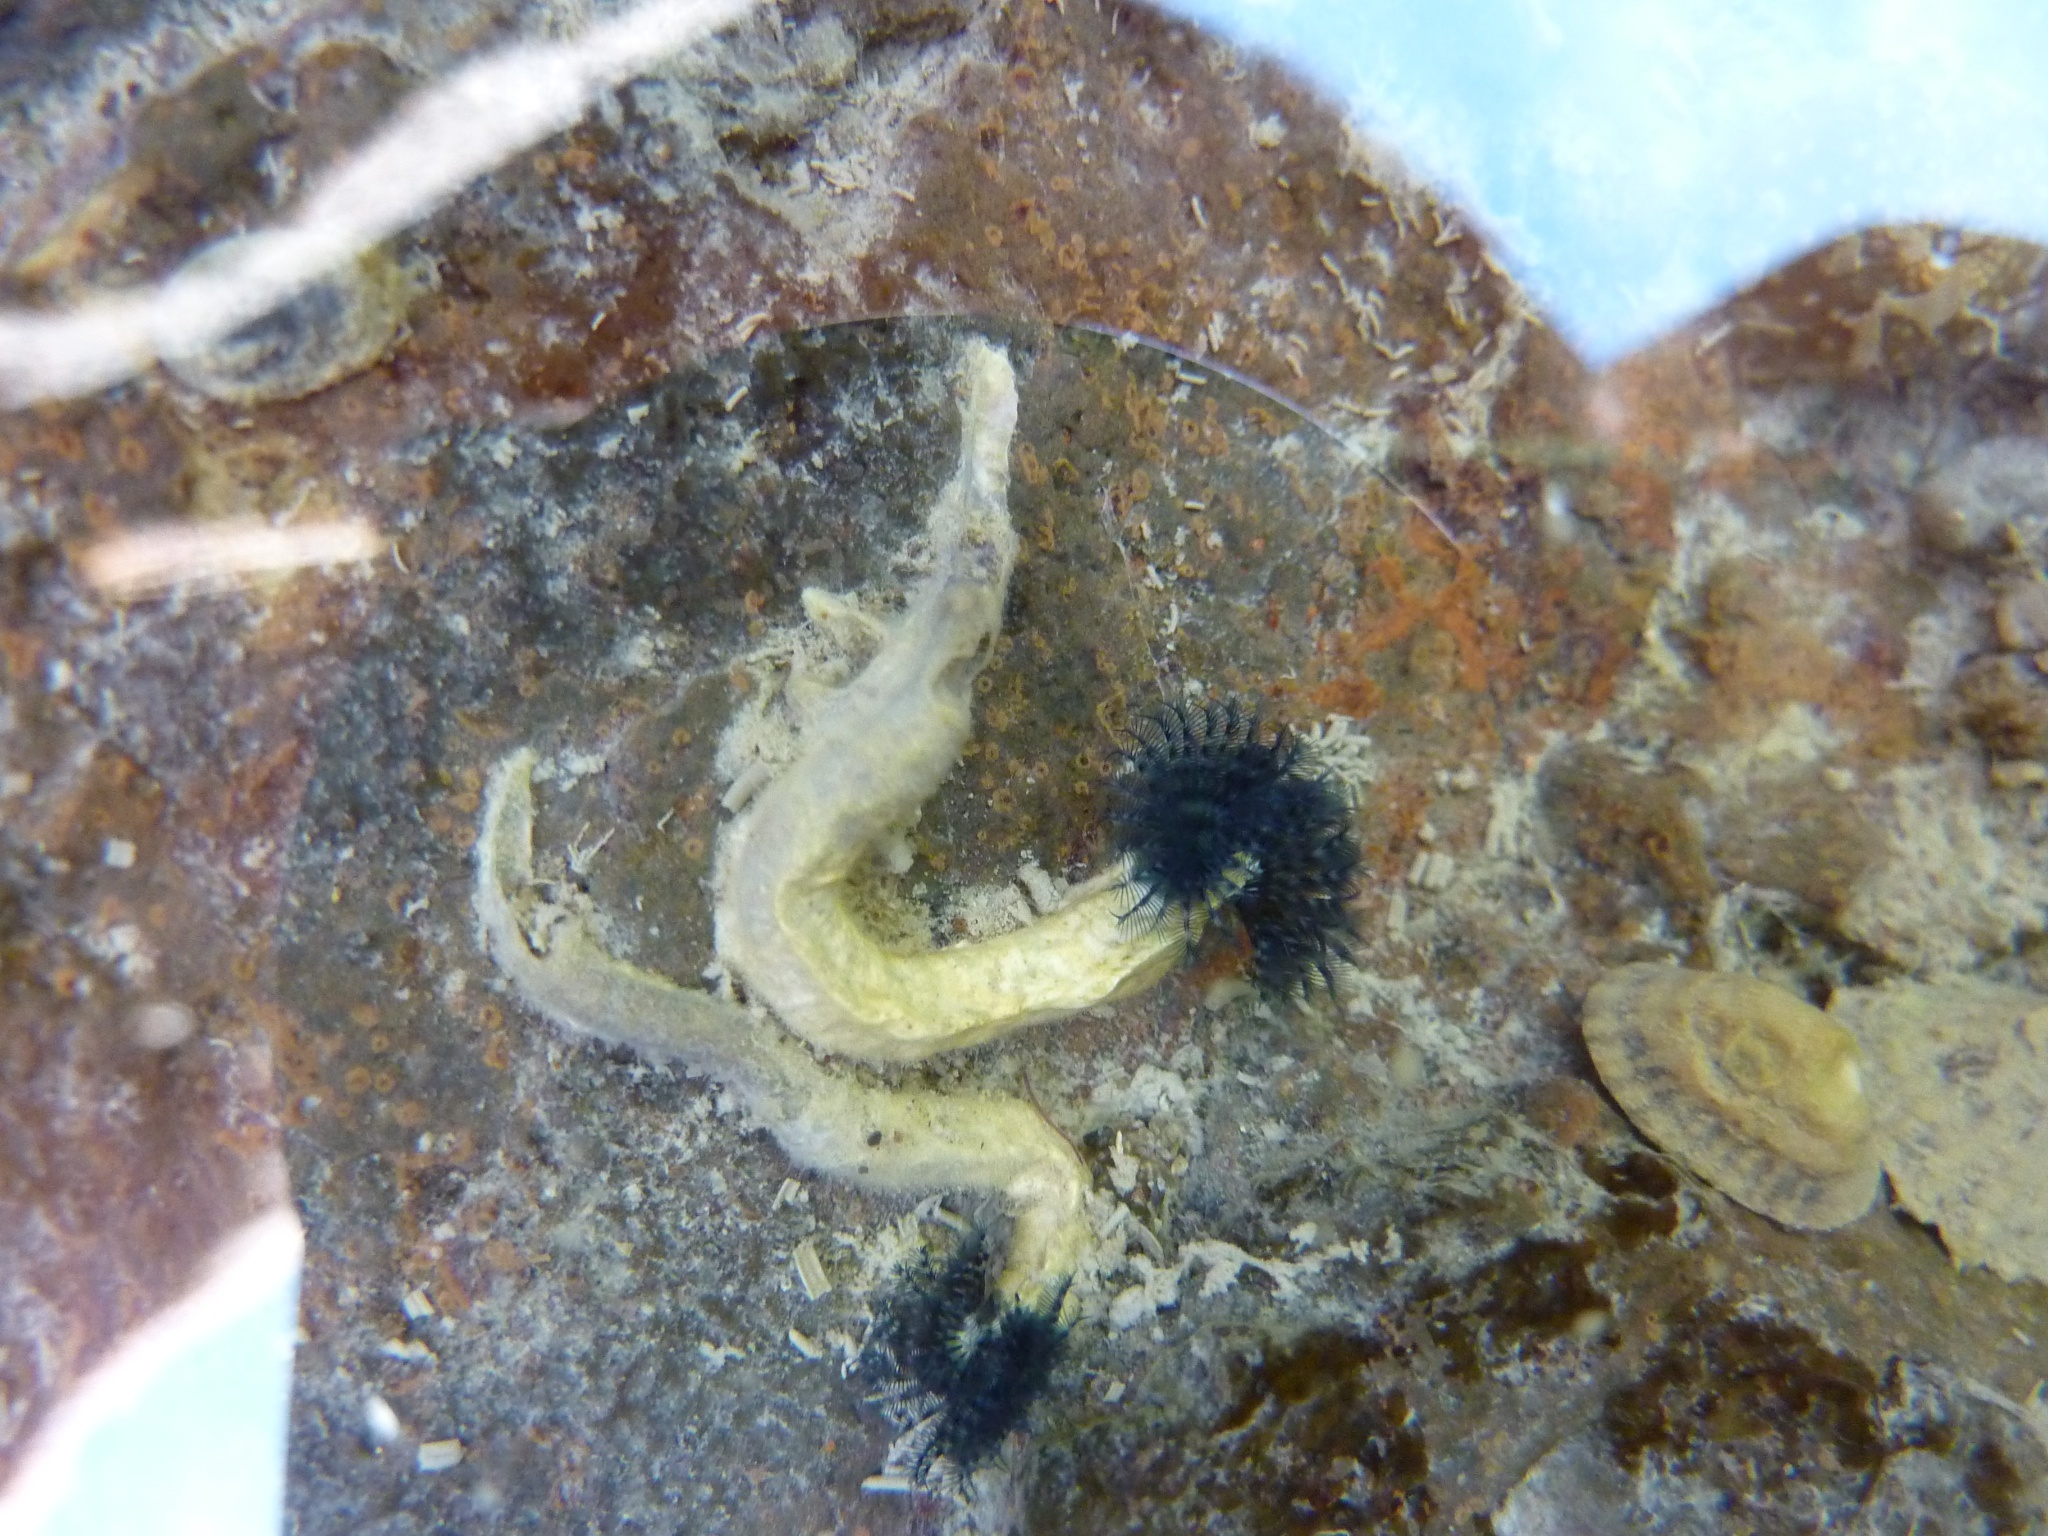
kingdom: Animalia
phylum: Annelida
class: Polychaeta
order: Sabellida
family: Serpulidae
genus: Spirobranchus
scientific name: Spirobranchus cariniferus
